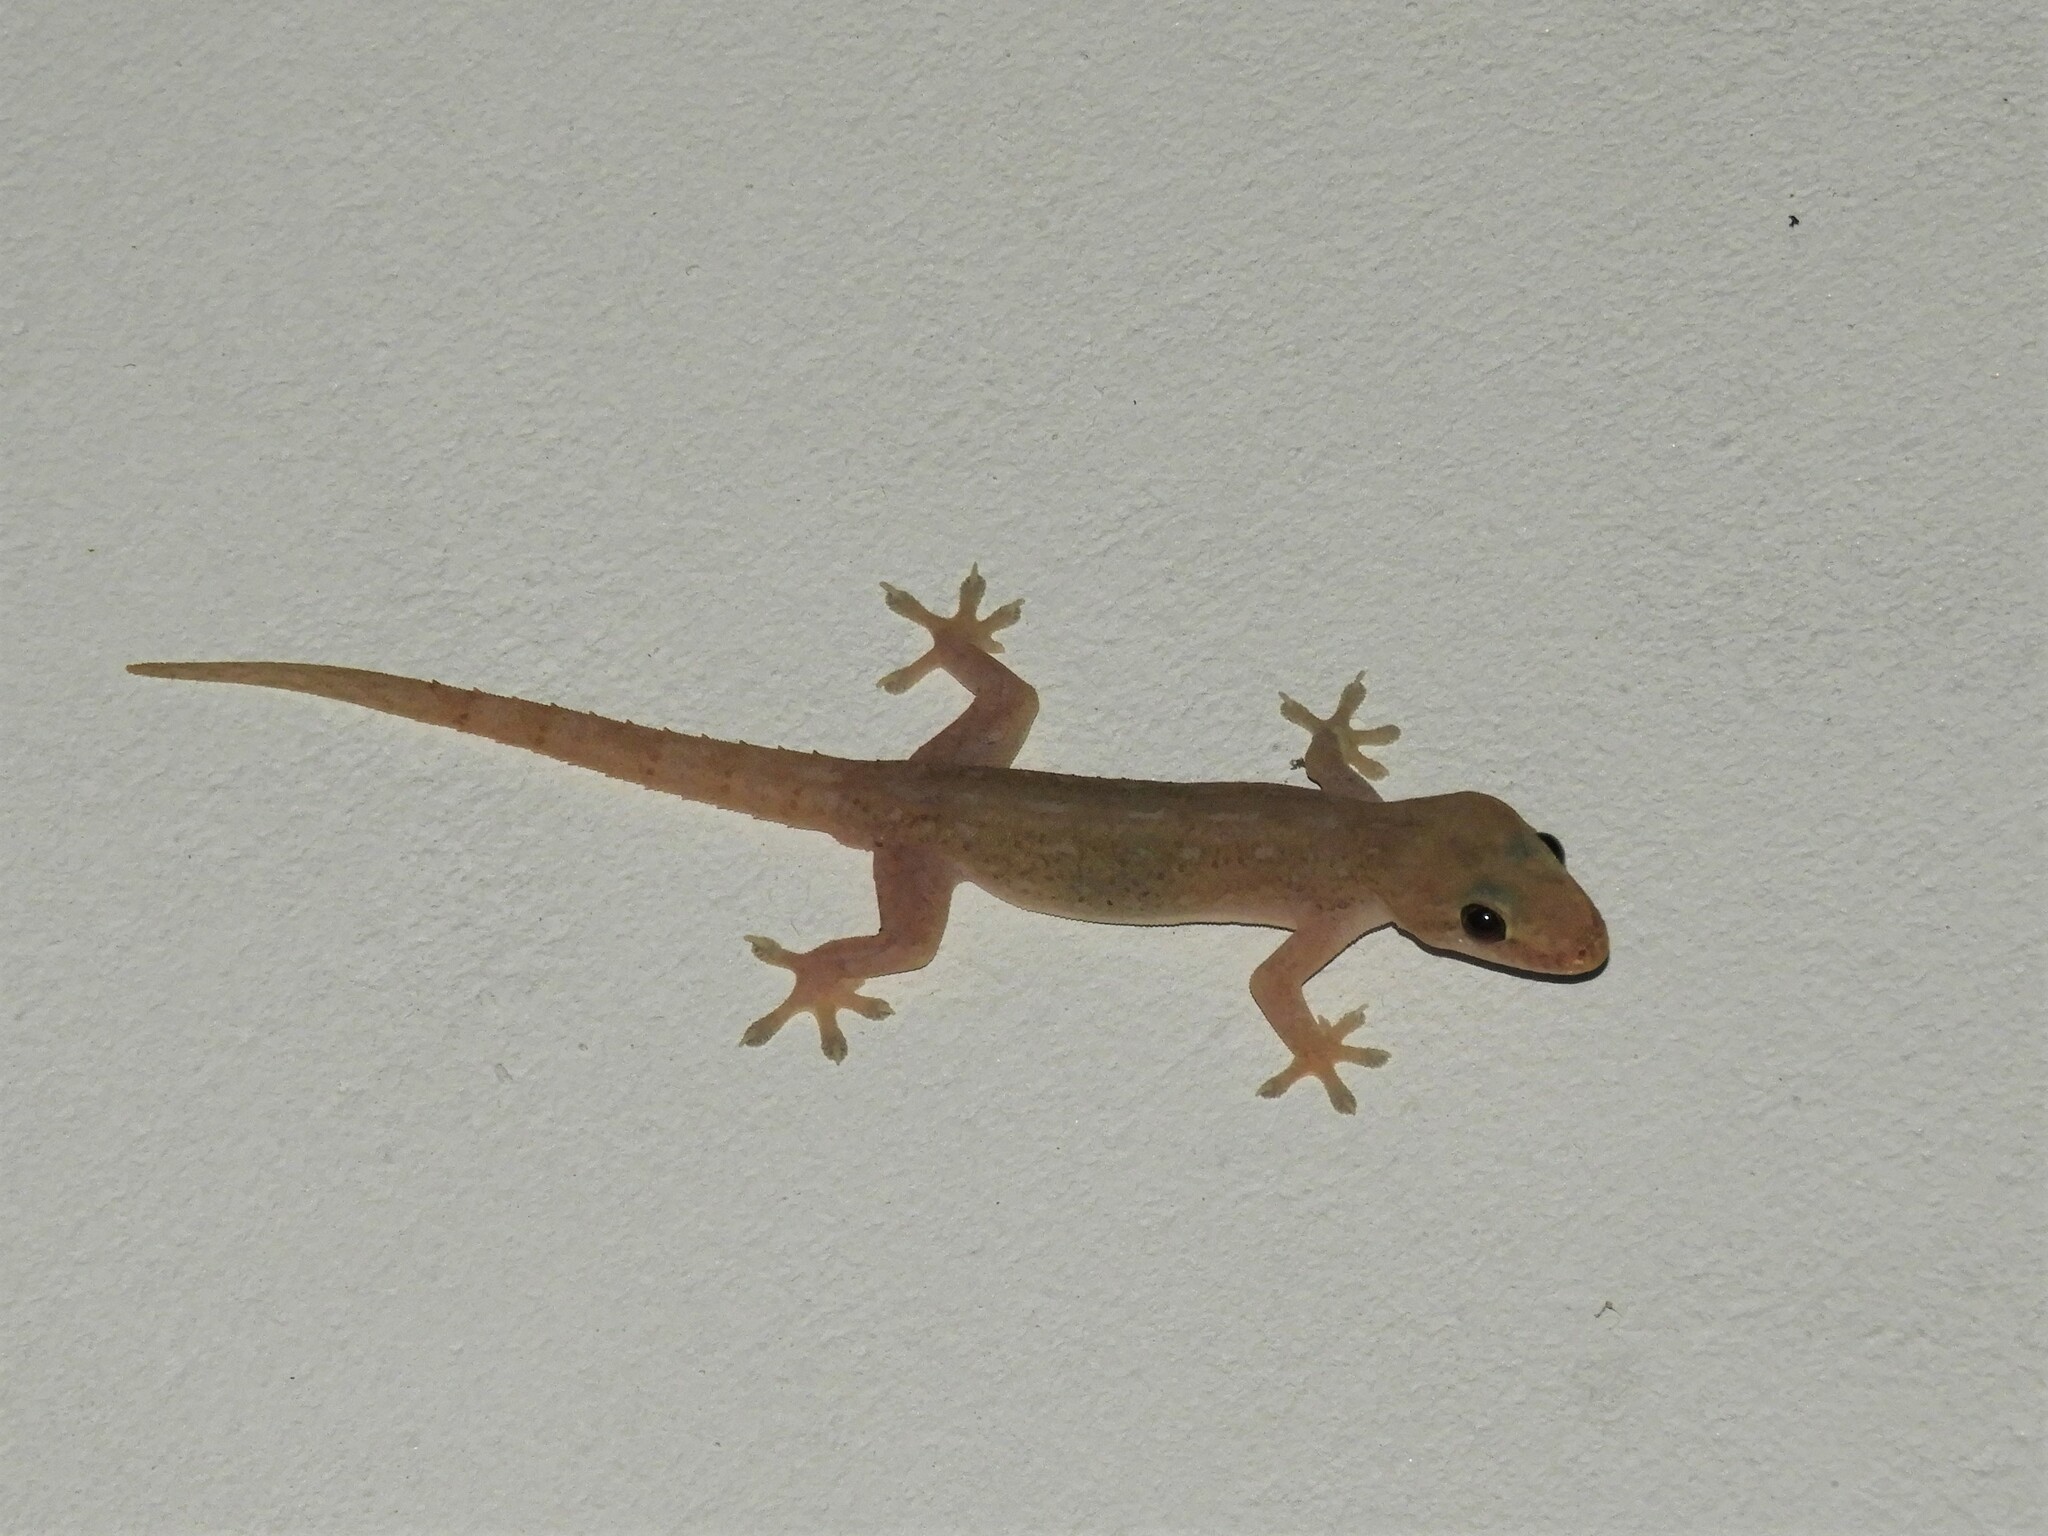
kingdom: Animalia
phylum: Chordata
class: Squamata
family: Gekkonidae
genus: Hemidactylus
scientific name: Hemidactylus frenatus
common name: Common house gecko
